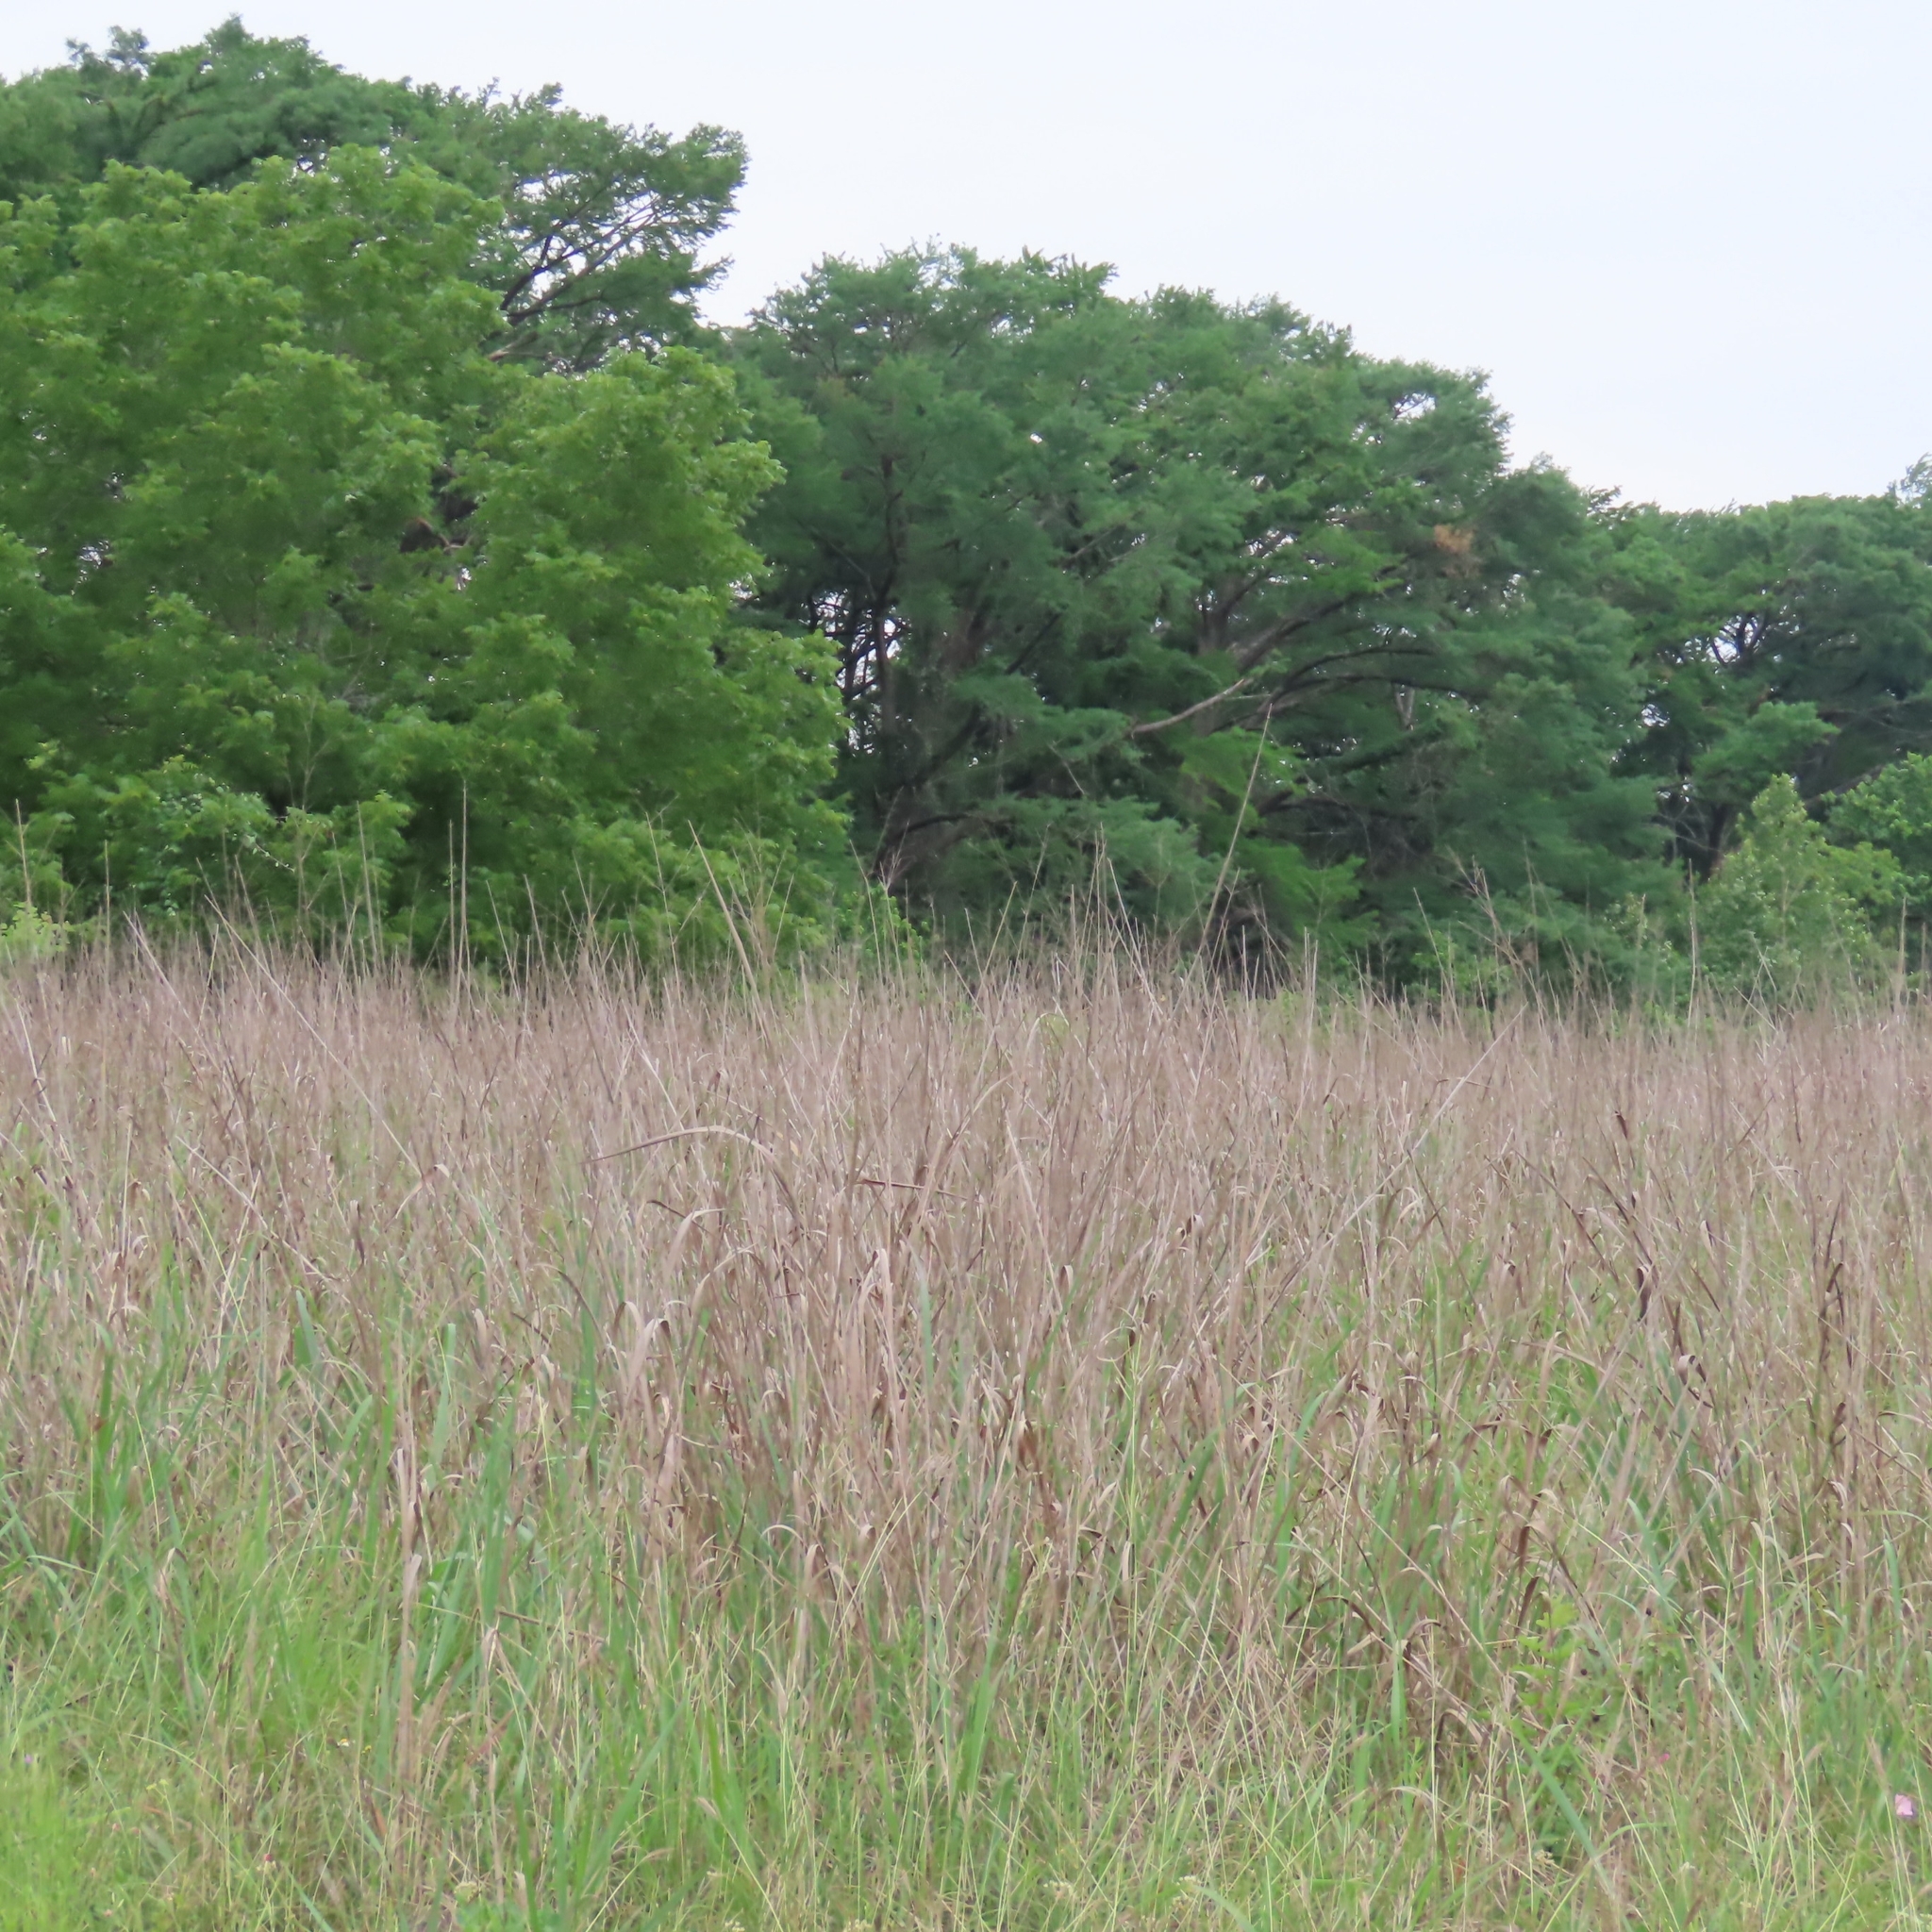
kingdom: Plantae
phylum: Tracheophyta
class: Liliopsida
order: Poales
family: Poaceae
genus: Panicum
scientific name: Panicum virgatum
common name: Switchgrass
